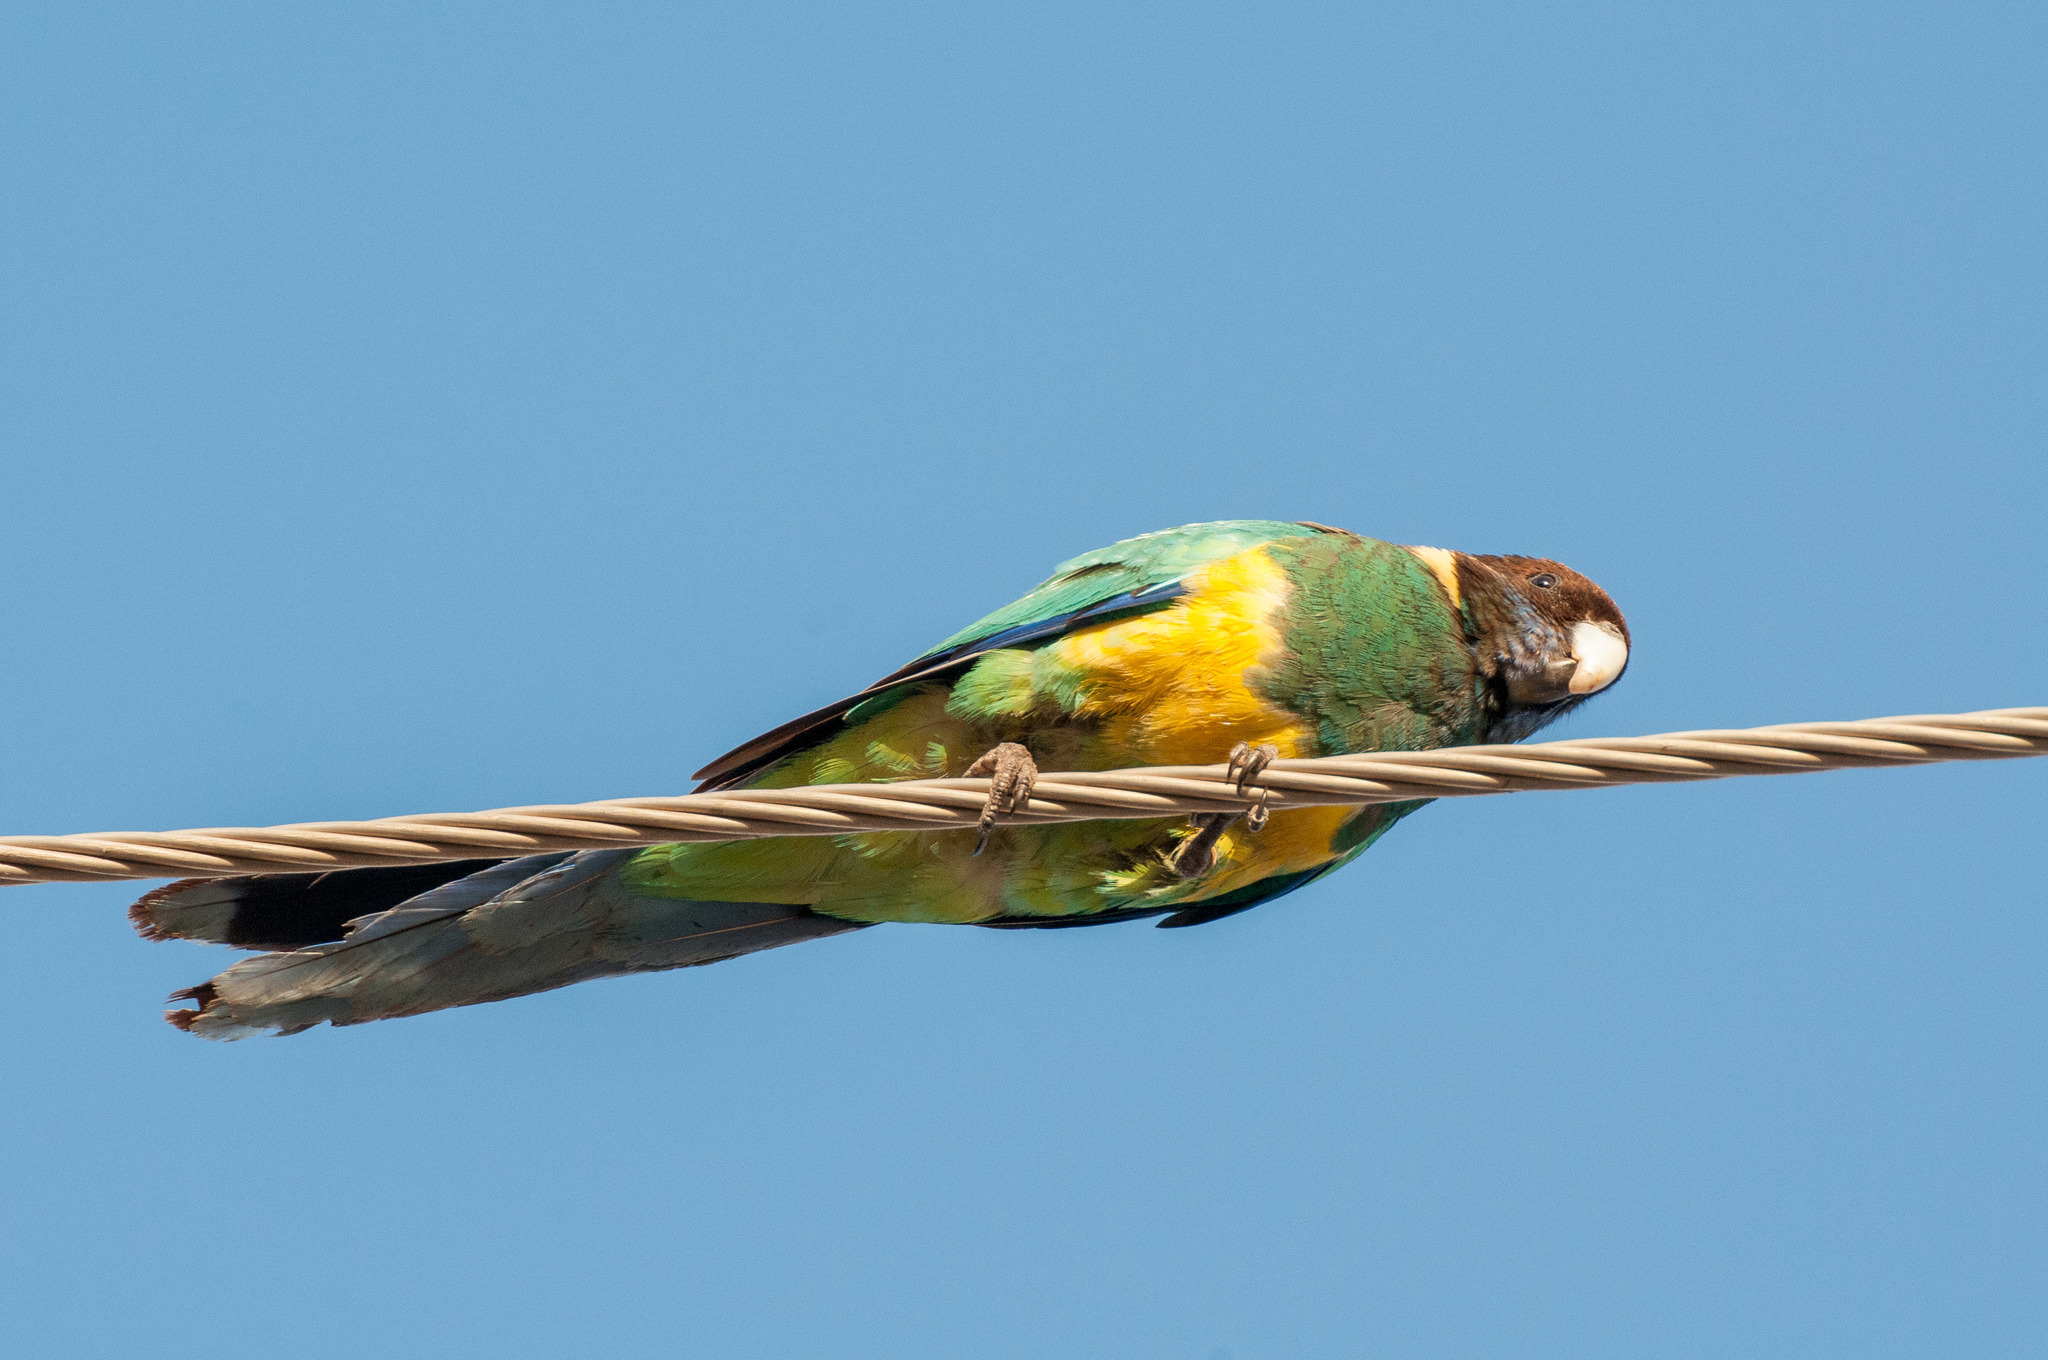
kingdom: Animalia
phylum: Chordata
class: Aves
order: Psittaciformes
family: Psittacidae
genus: Barnardius
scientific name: Barnardius zonarius
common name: Australian ringneck
